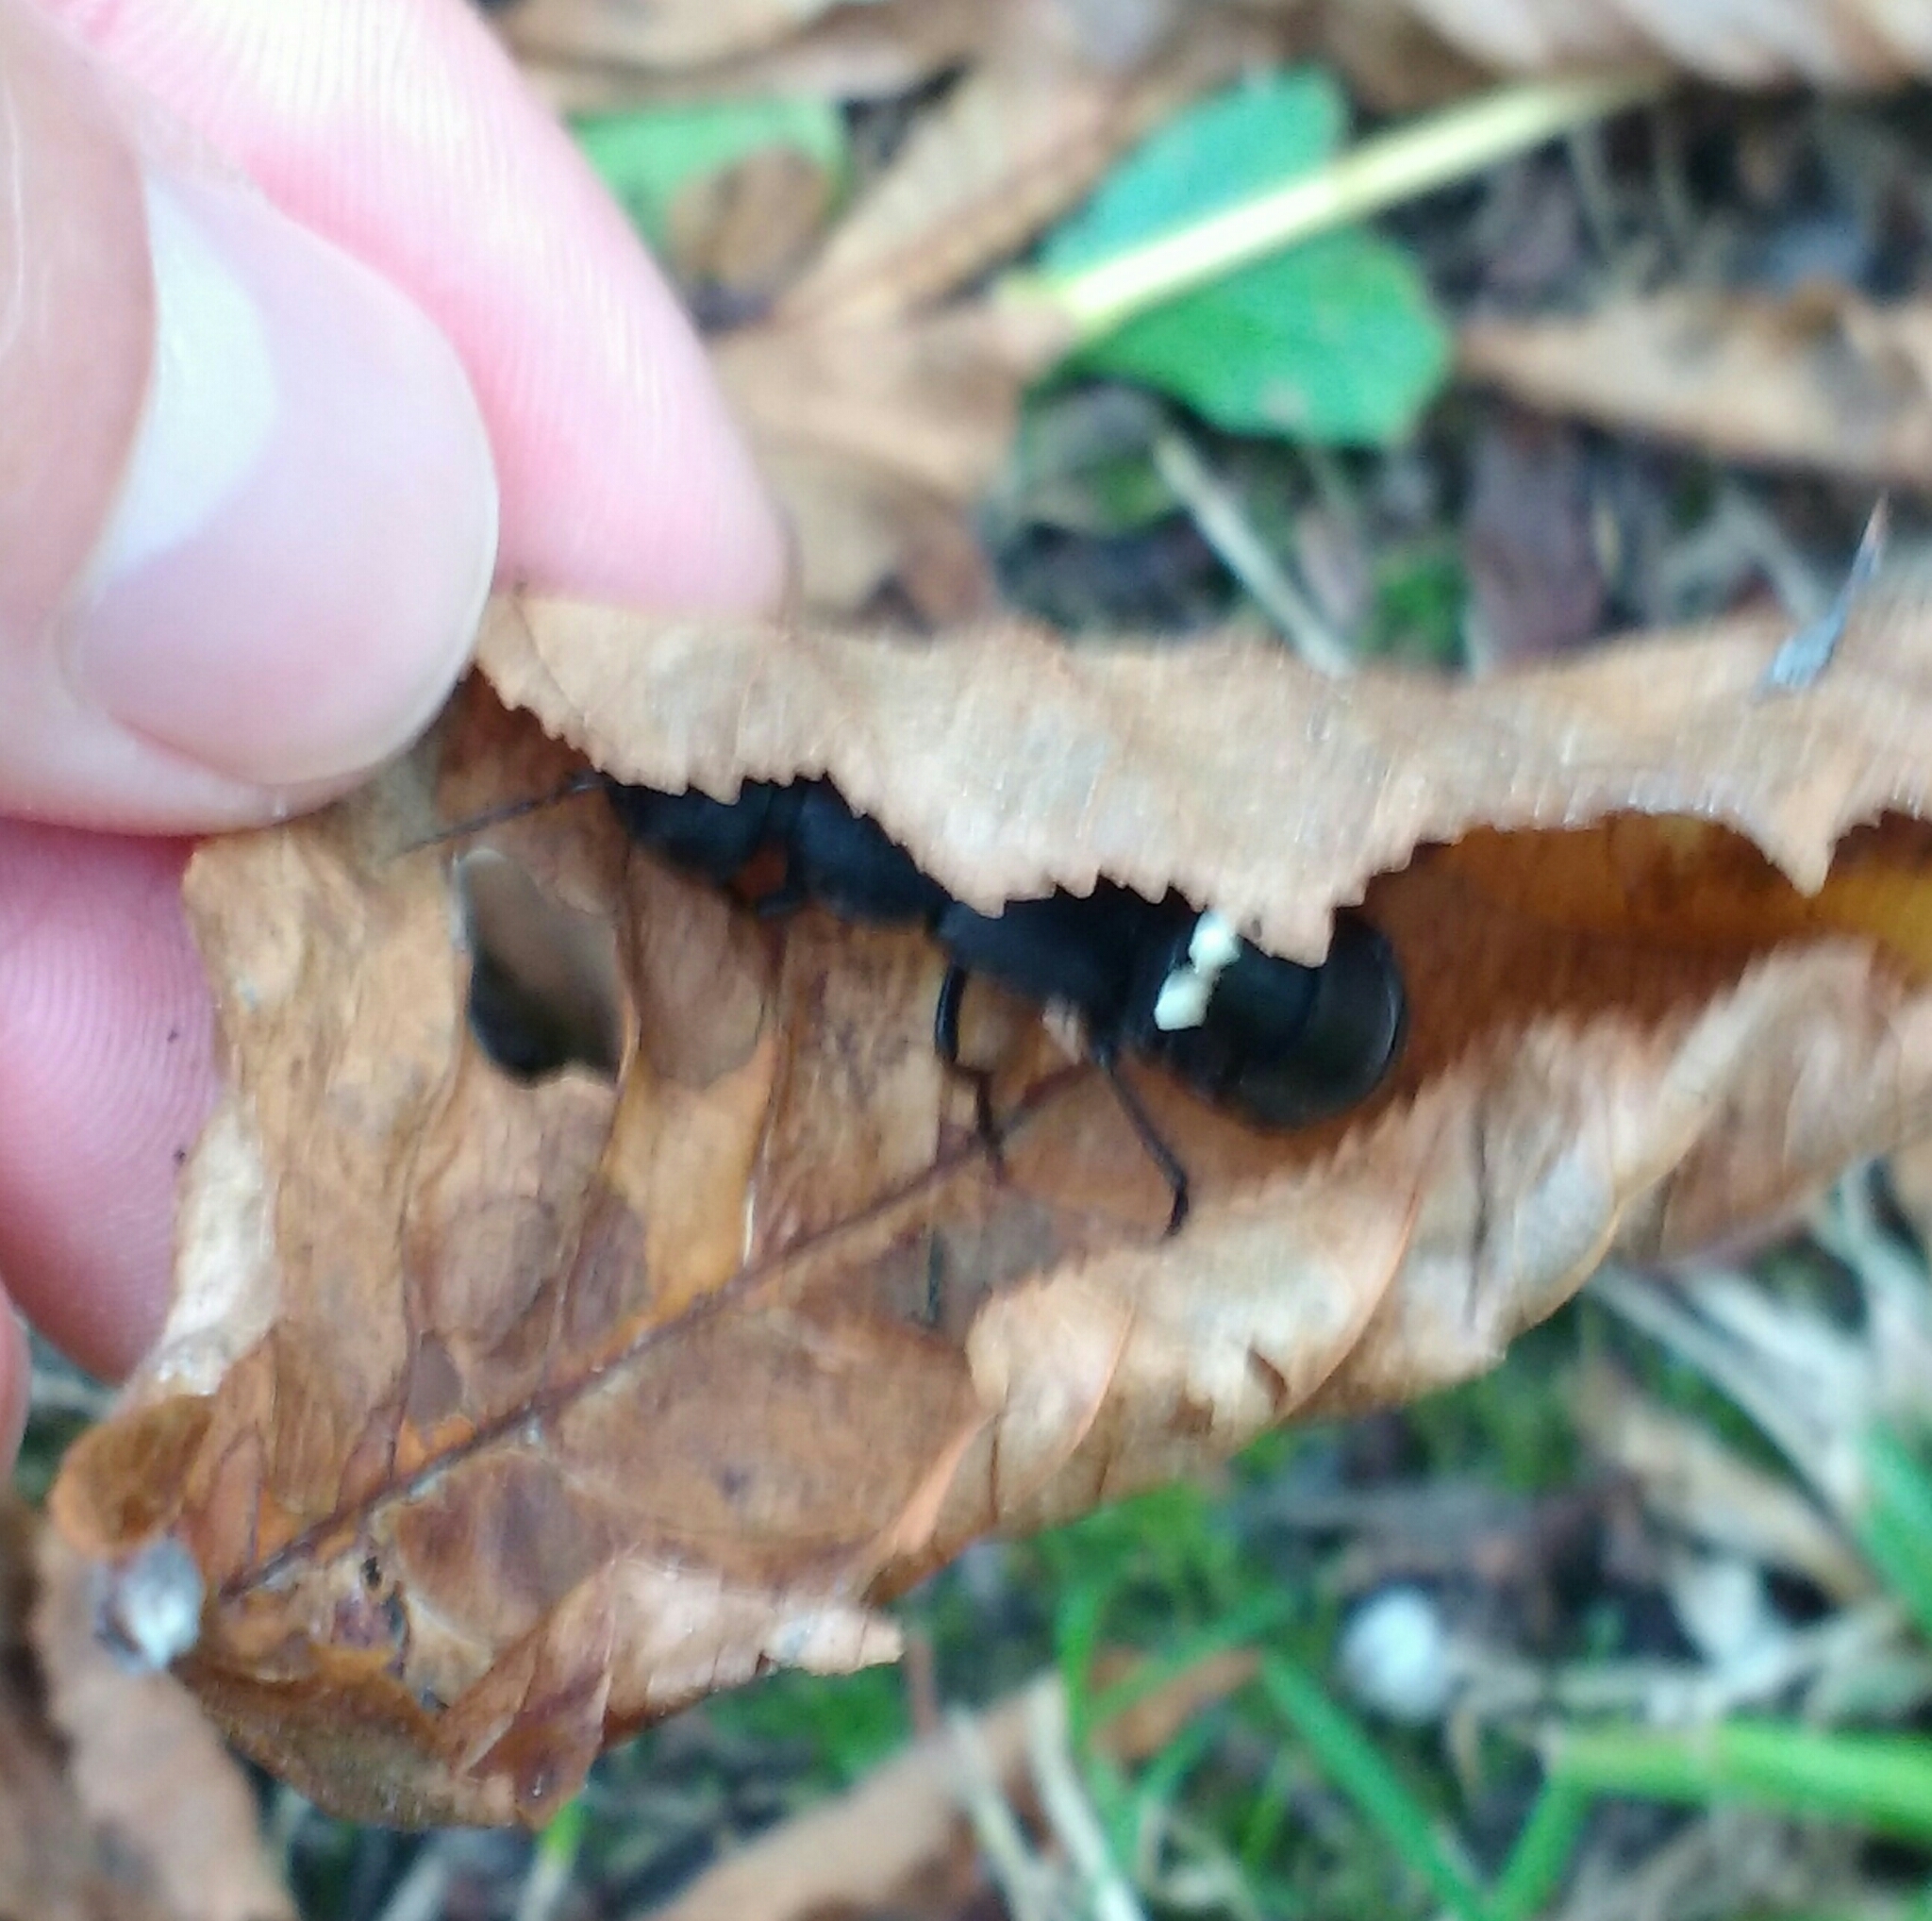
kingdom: Animalia
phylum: Arthropoda
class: Insecta
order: Coleoptera
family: Staphylinidae
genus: Ocypus
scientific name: Ocypus olens
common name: Devil's coach-horse
